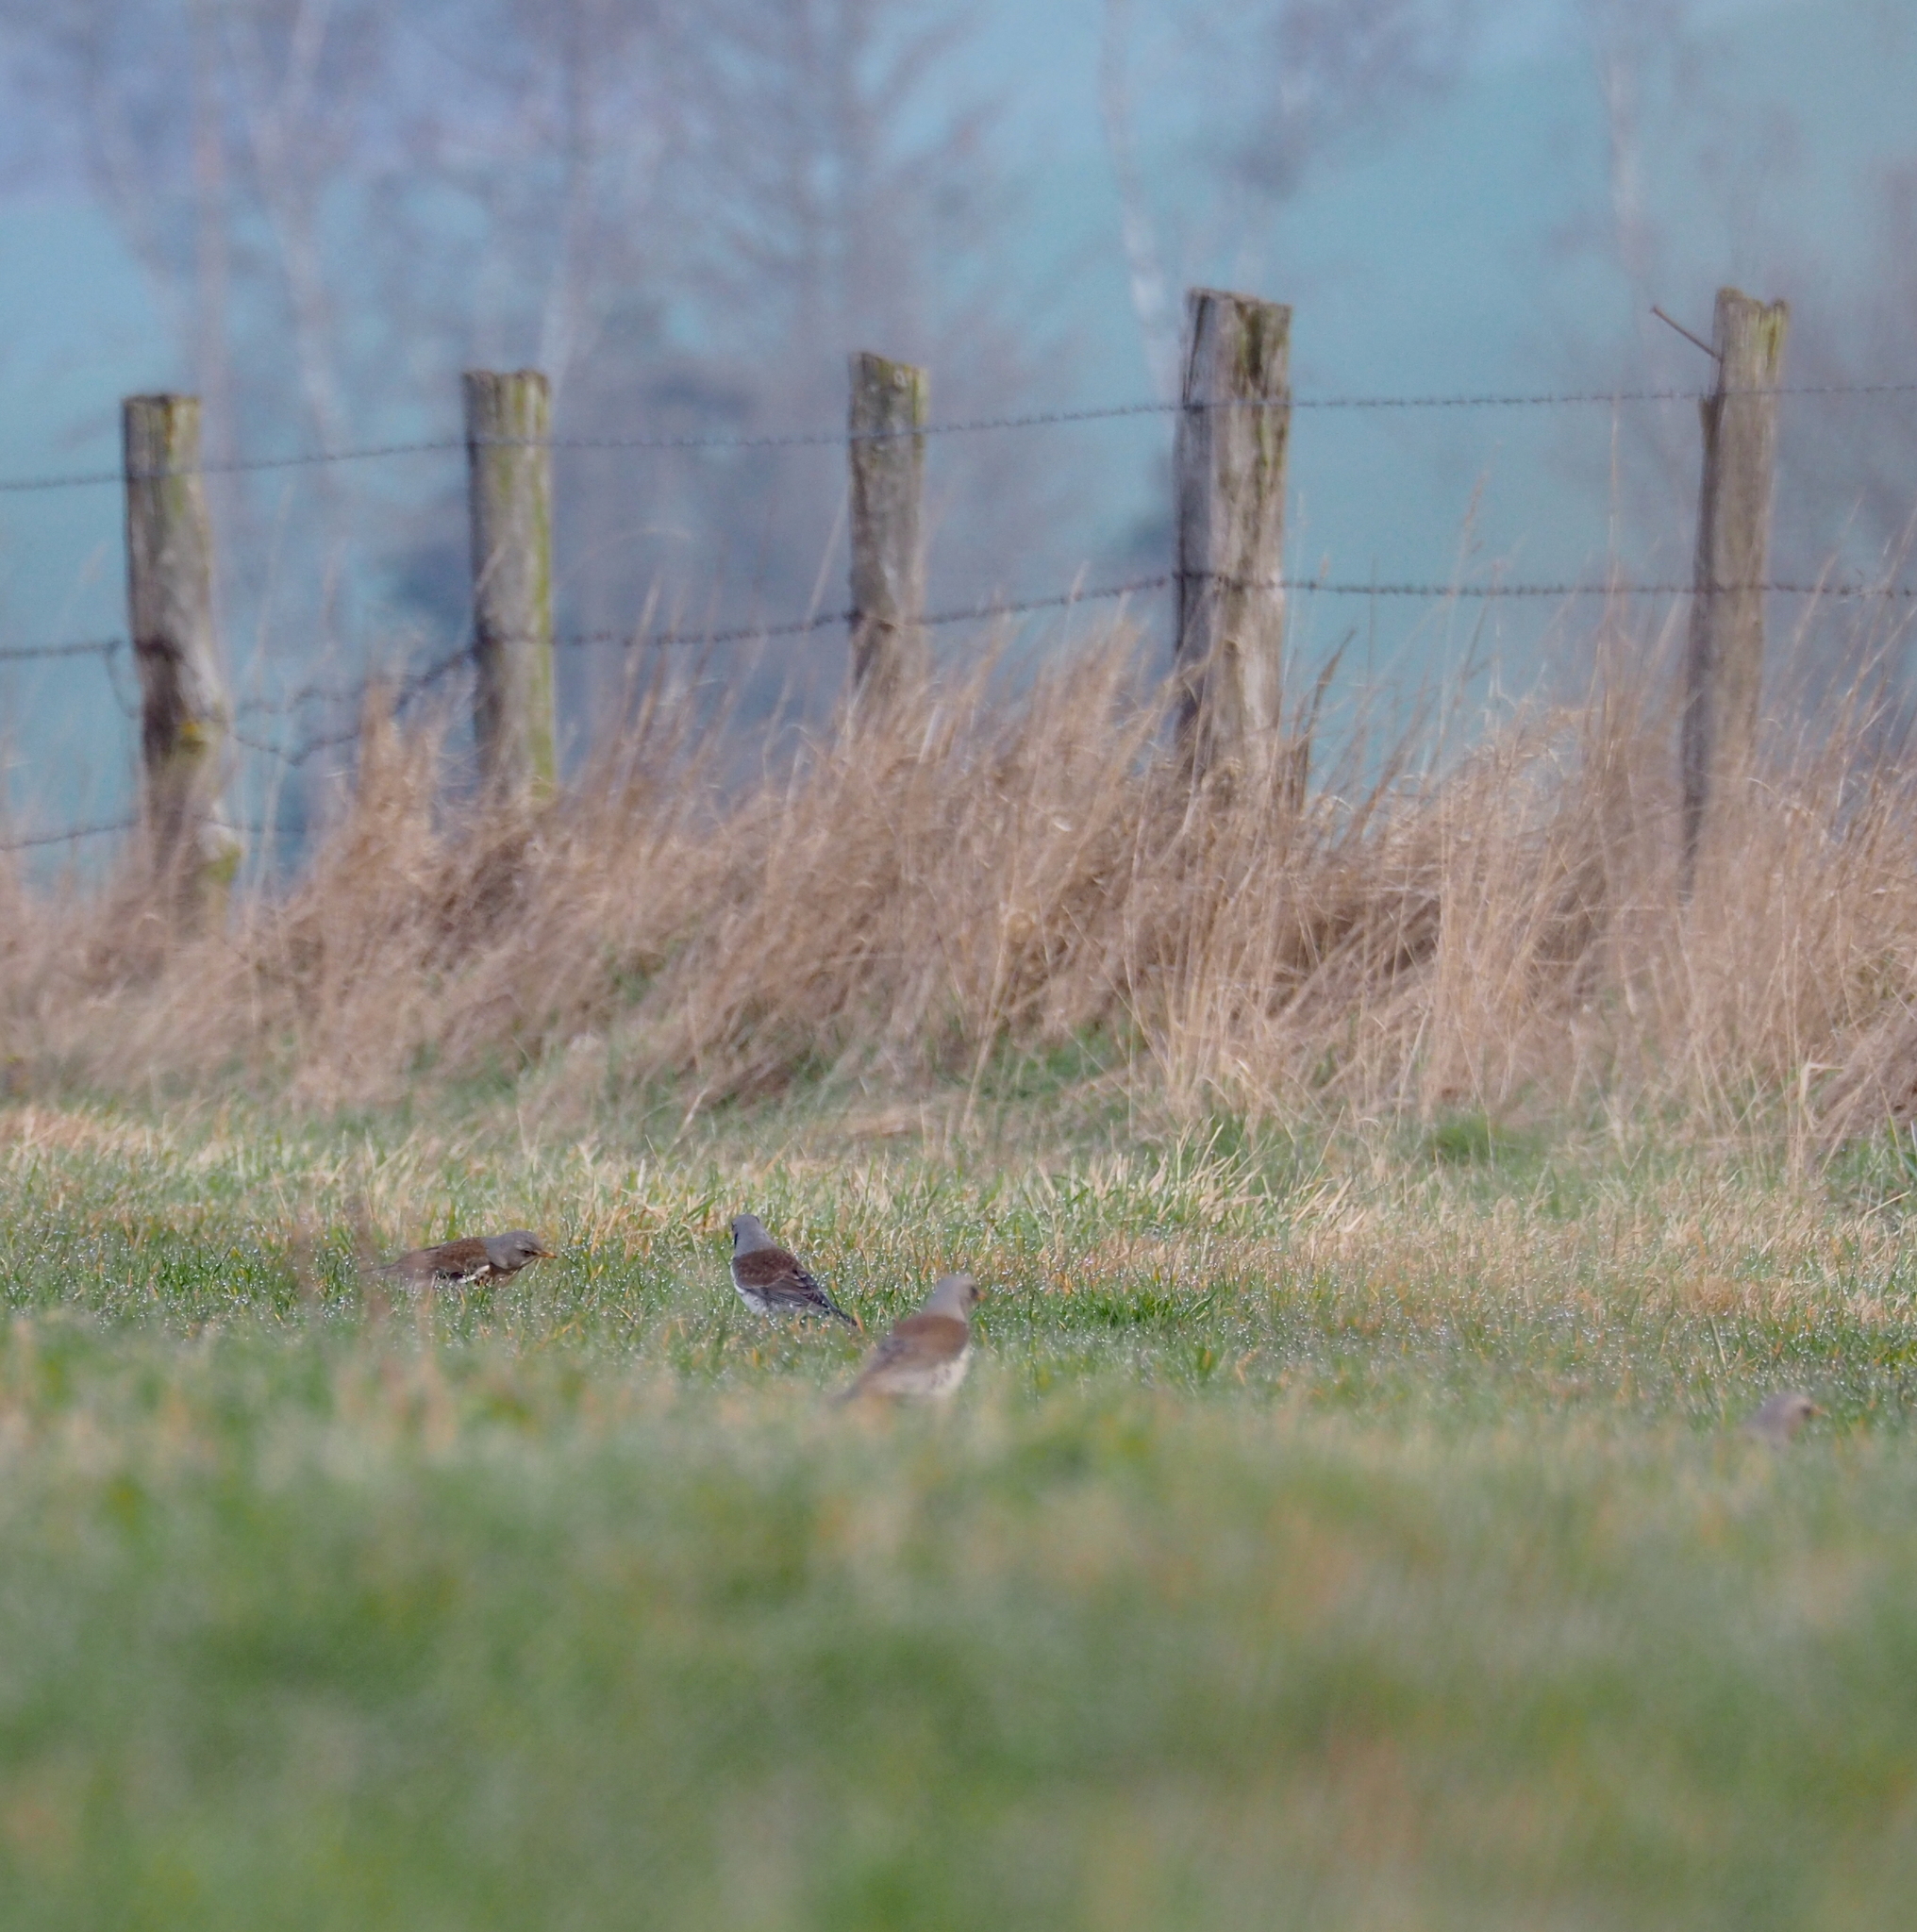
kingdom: Animalia
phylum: Chordata
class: Aves
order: Passeriformes
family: Turdidae
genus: Turdus
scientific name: Turdus pilaris
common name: Fieldfare
